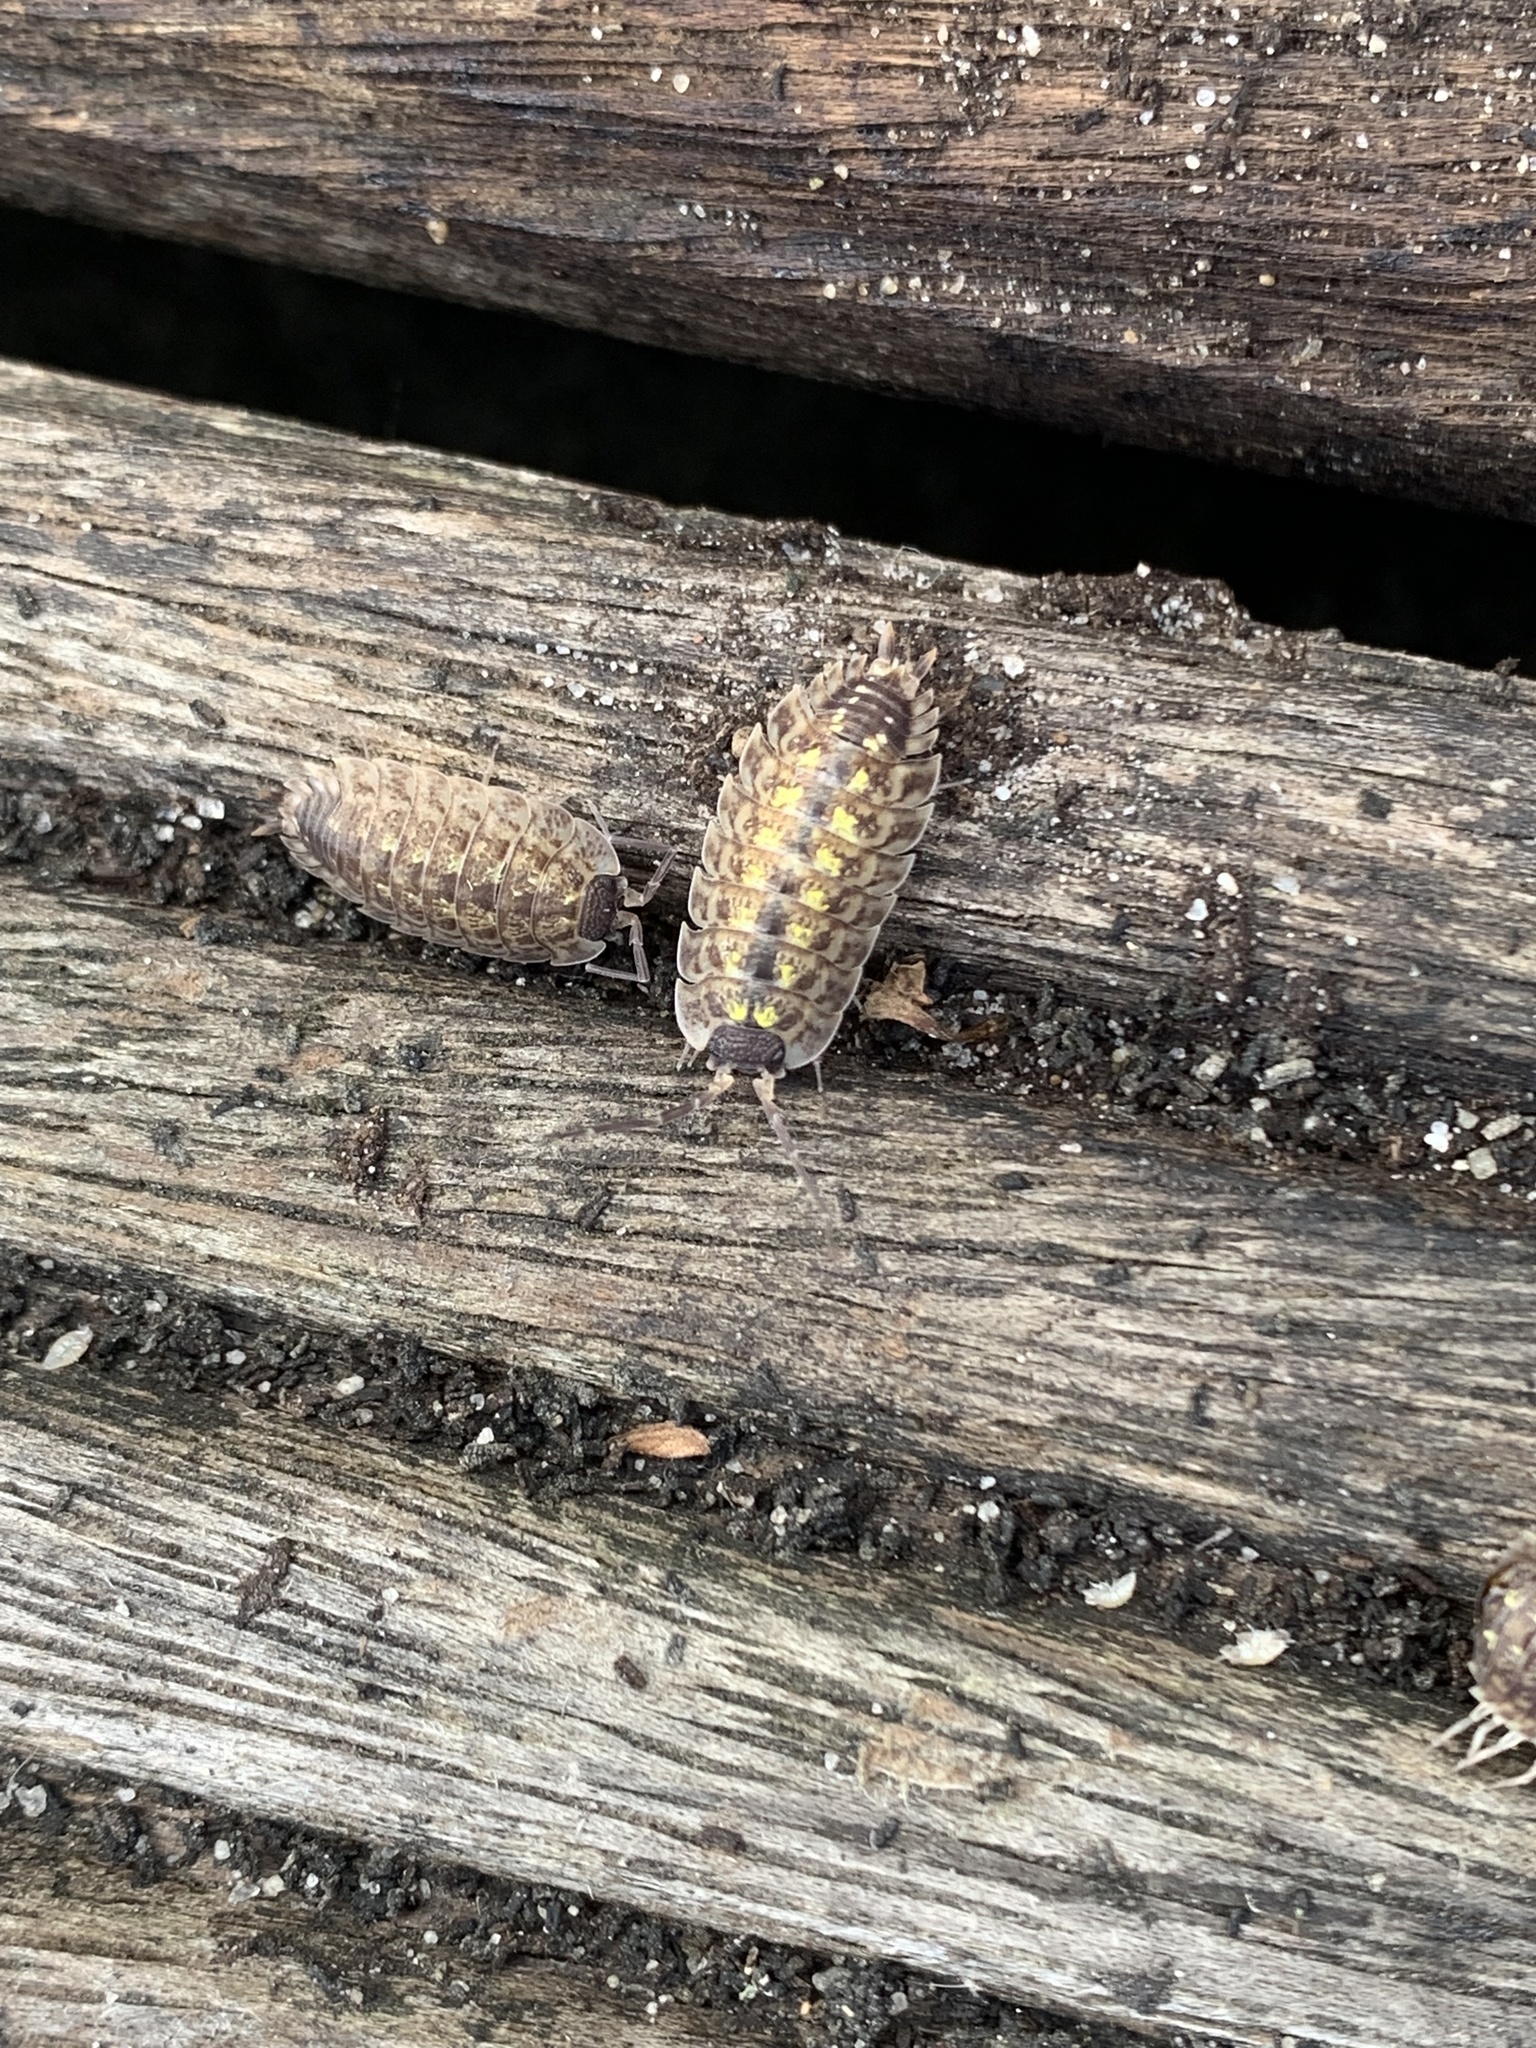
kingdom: Animalia
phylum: Arthropoda
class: Malacostraca
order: Isopoda
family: Porcellionidae
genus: Porcellio
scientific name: Porcellio spinicornis
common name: Painted woodlouse
